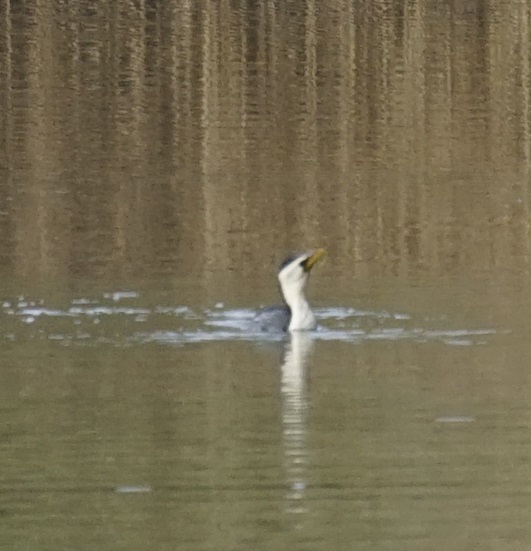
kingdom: Animalia
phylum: Chordata
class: Aves
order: Suliformes
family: Phalacrocoracidae
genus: Microcarbo
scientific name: Microcarbo melanoleucos
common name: Little pied cormorant
